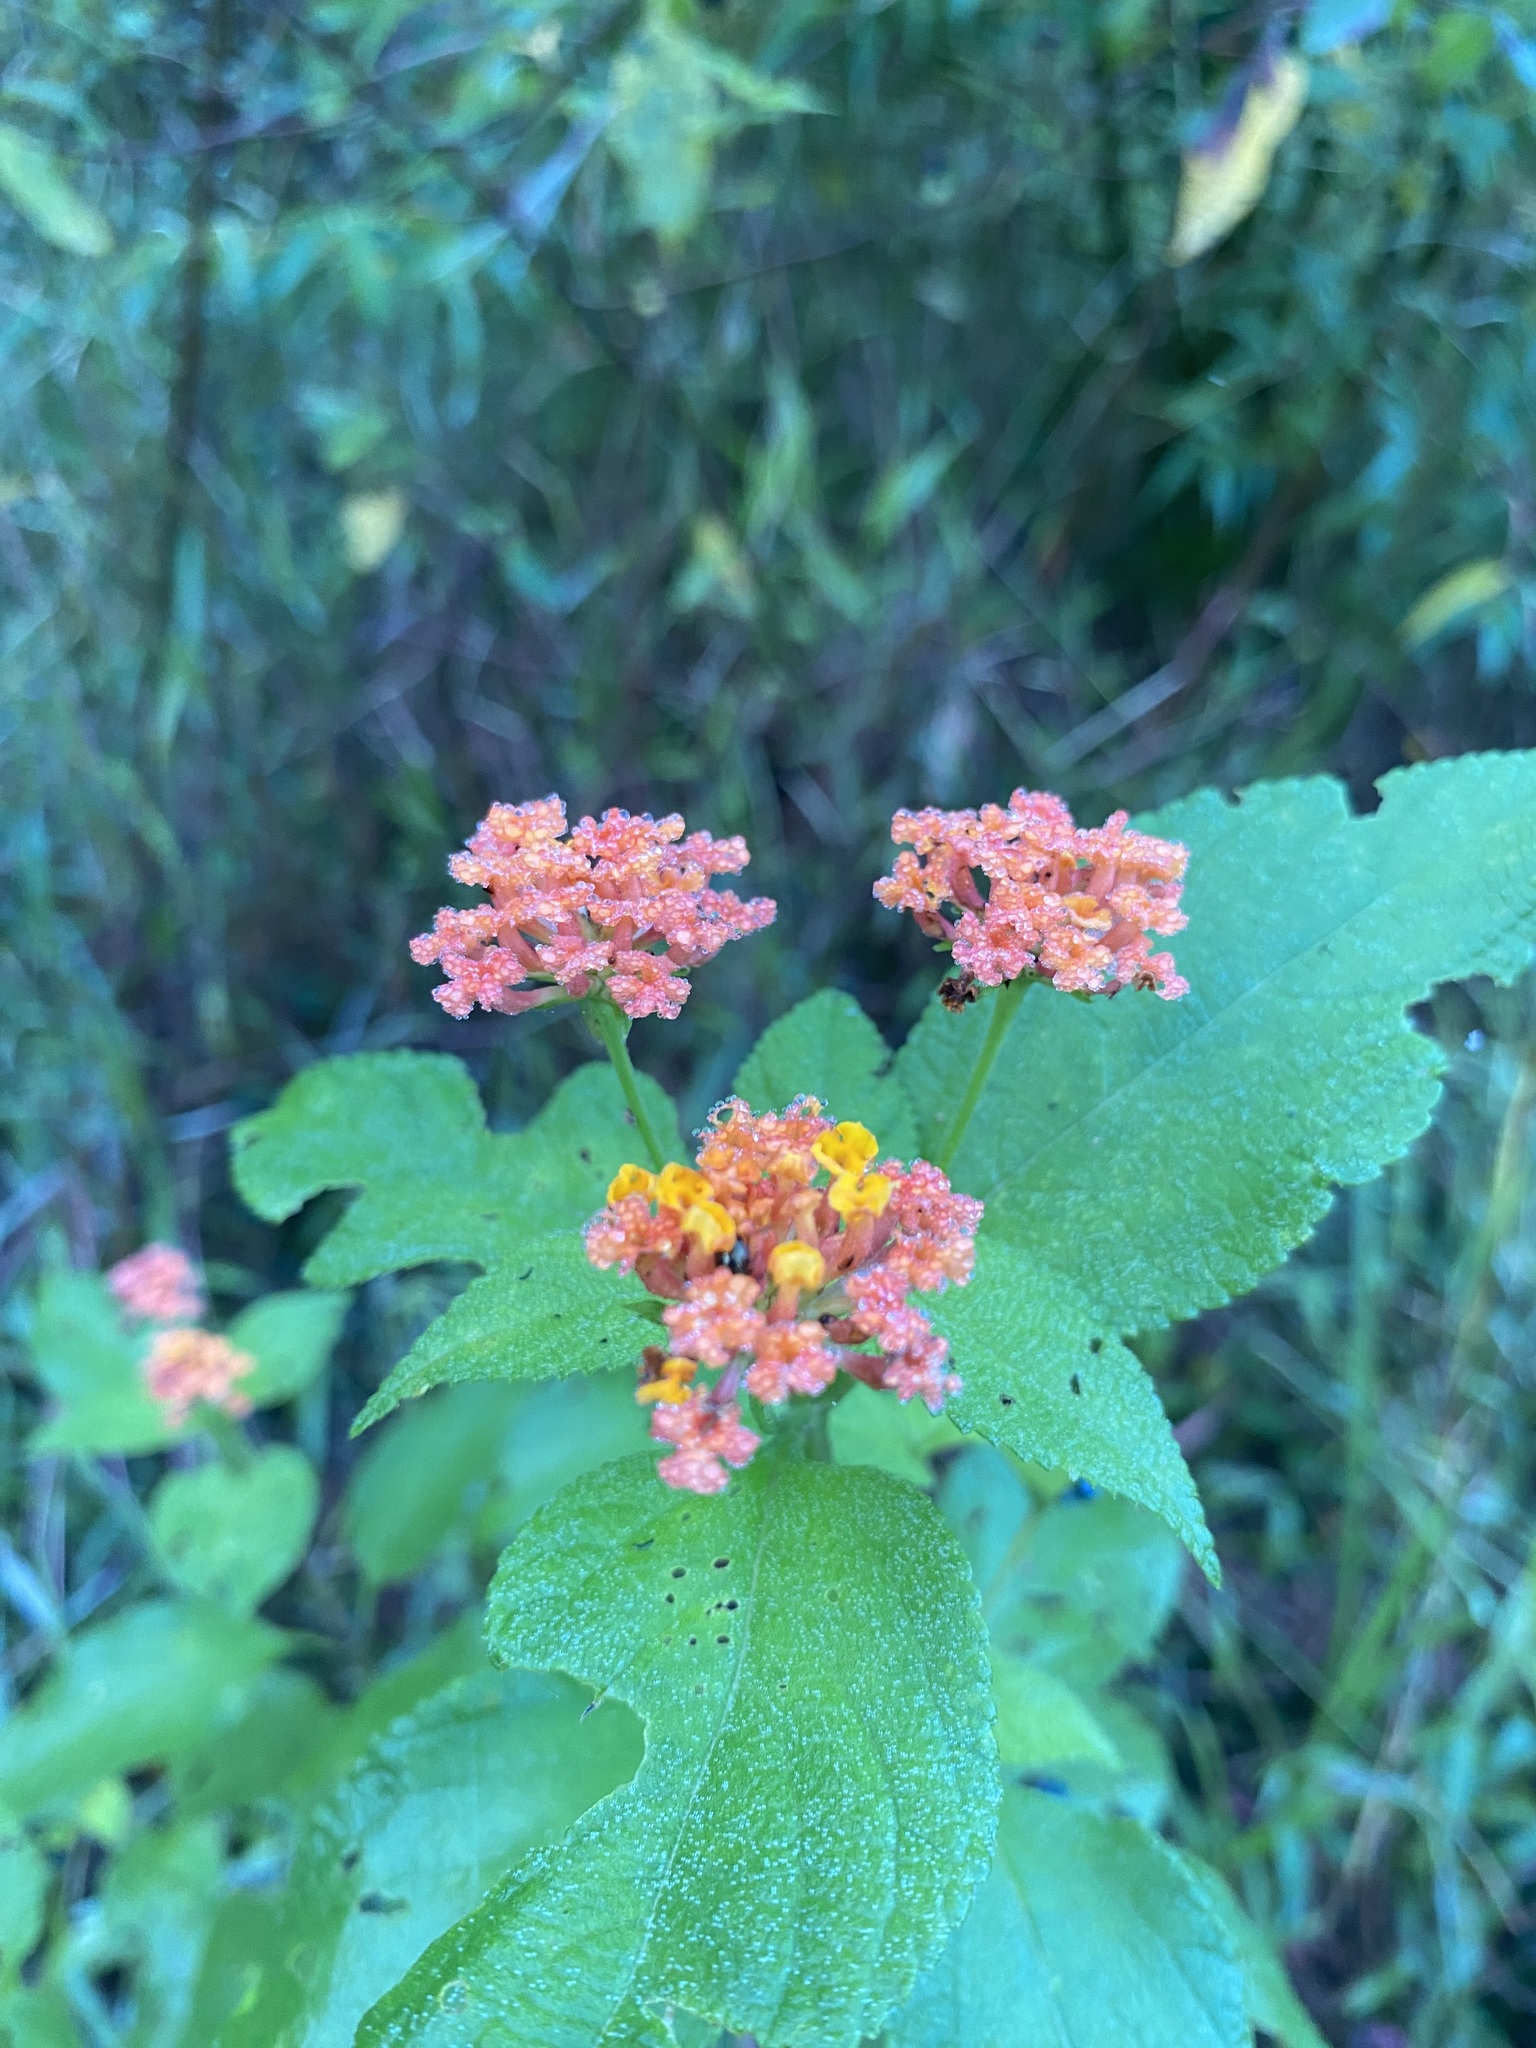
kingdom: Plantae
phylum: Tracheophyta
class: Magnoliopsida
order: Lamiales
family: Verbenaceae
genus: Lantana
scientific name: Lantana camara
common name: Lantana
